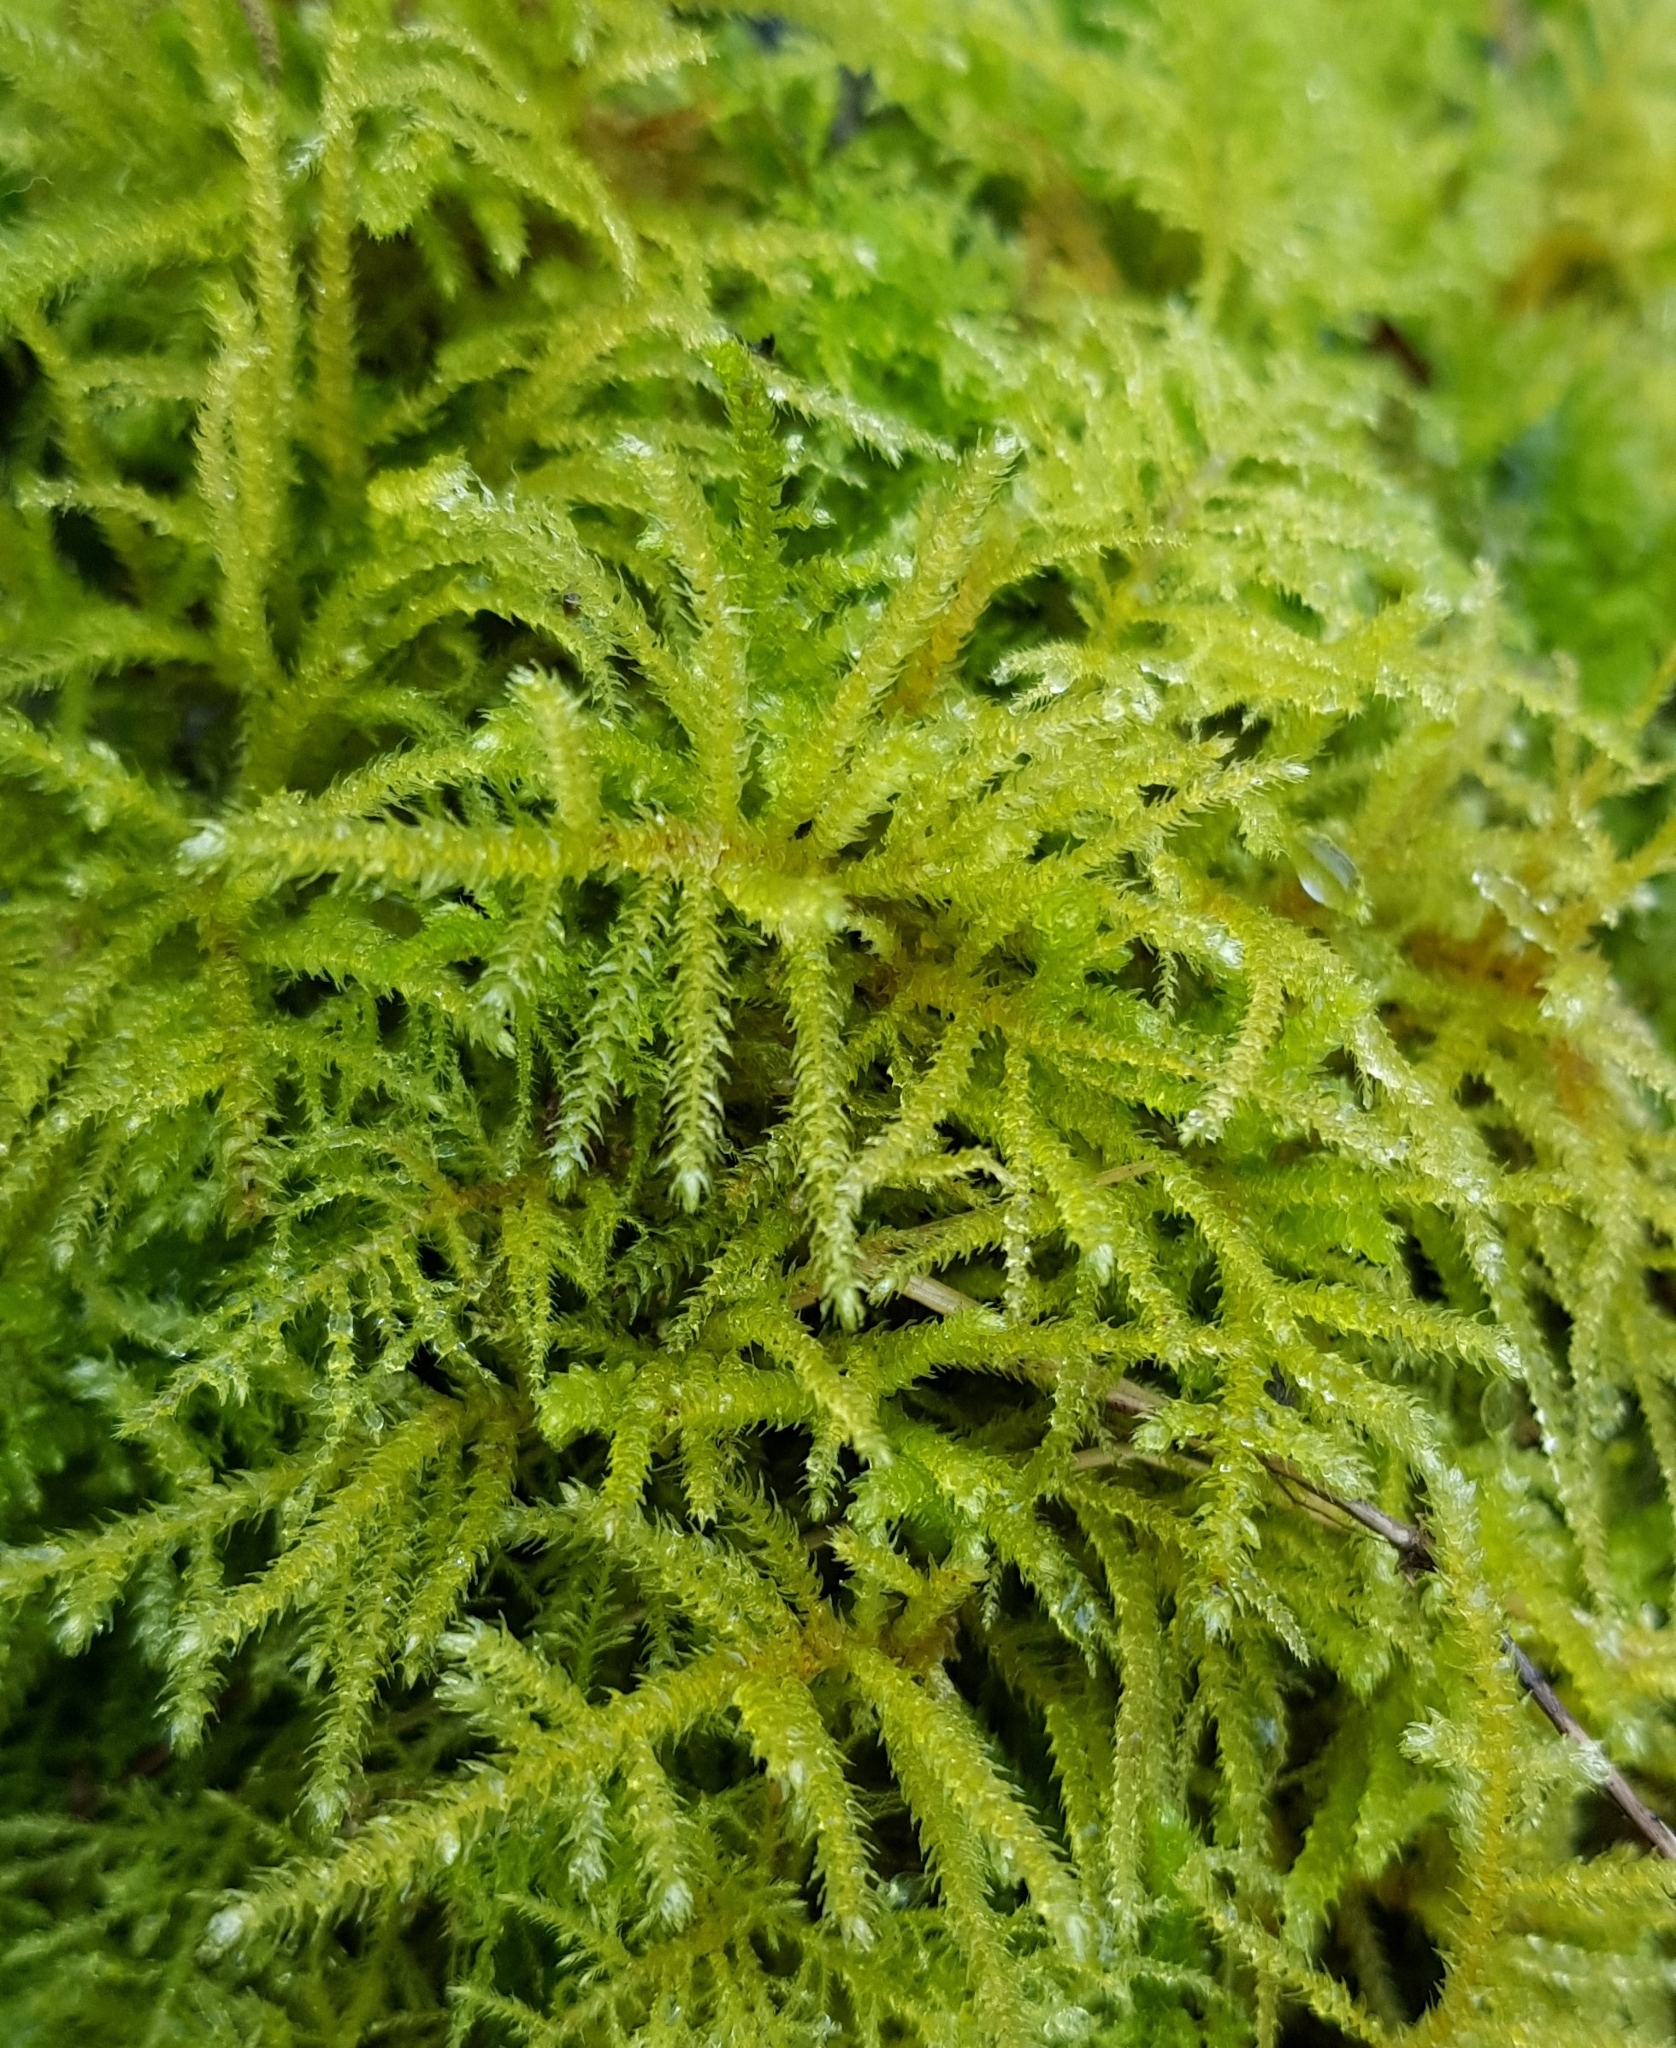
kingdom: Plantae
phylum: Bryophyta
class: Bryopsida
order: Hypnales
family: Brachytheciaceae
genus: Eurhynchium
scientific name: Eurhynchium striatum
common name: Common striated feather-moss
